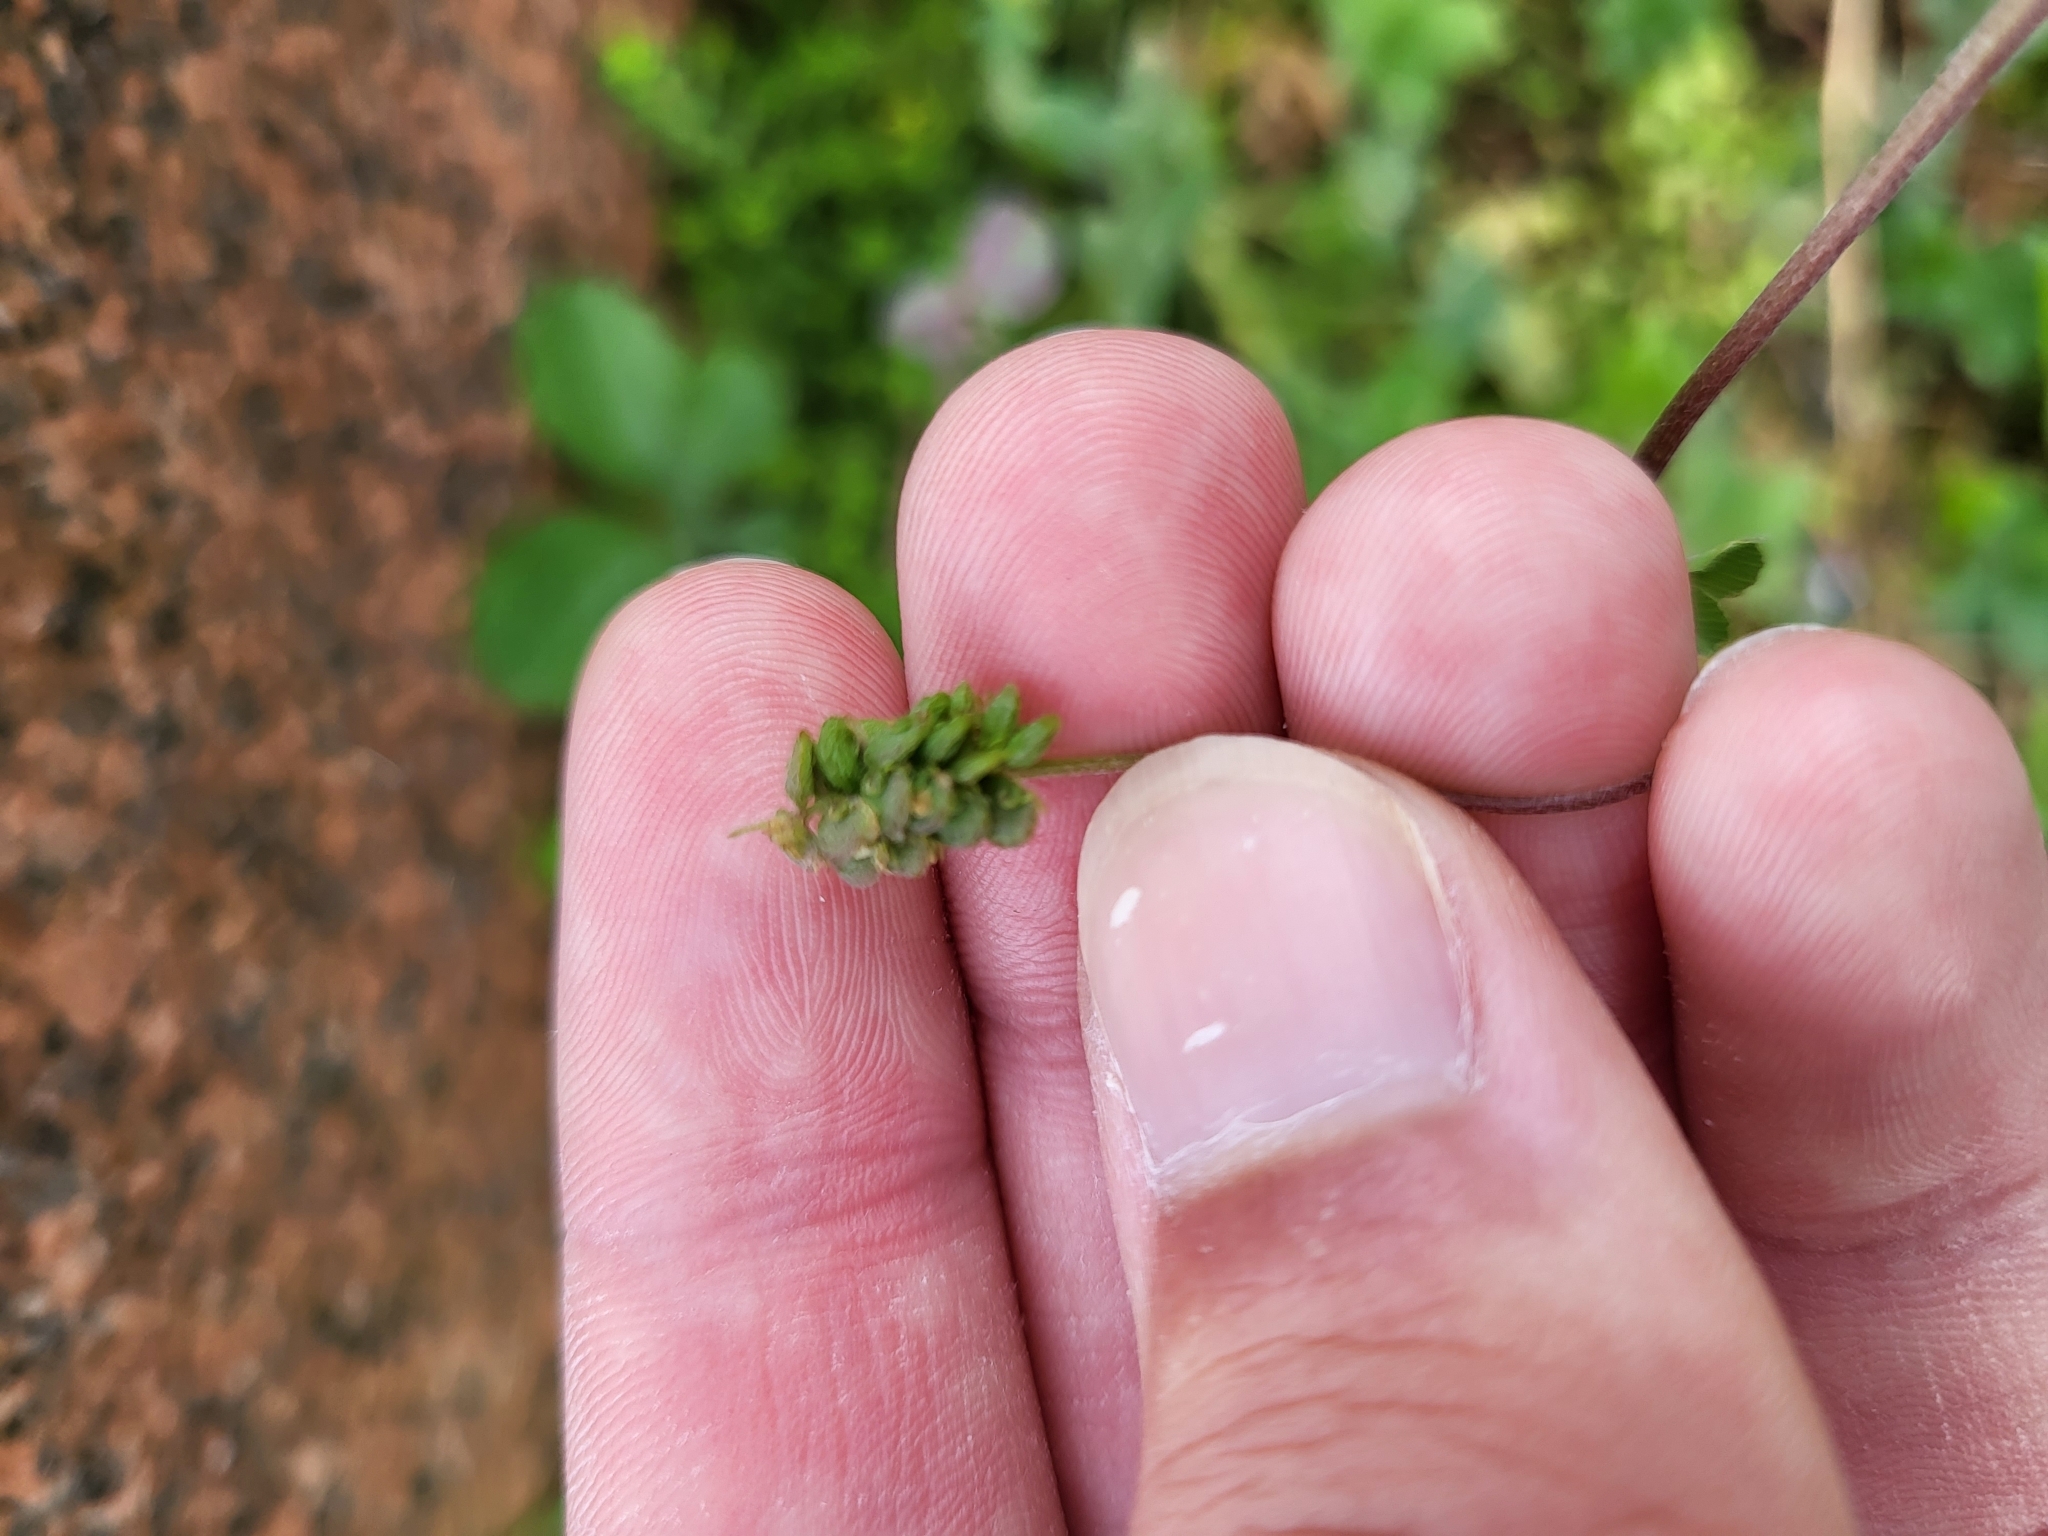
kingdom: Plantae
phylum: Tracheophyta
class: Magnoliopsida
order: Fabales
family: Fabaceae
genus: Medicago
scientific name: Medicago lupulina
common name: Black medick
